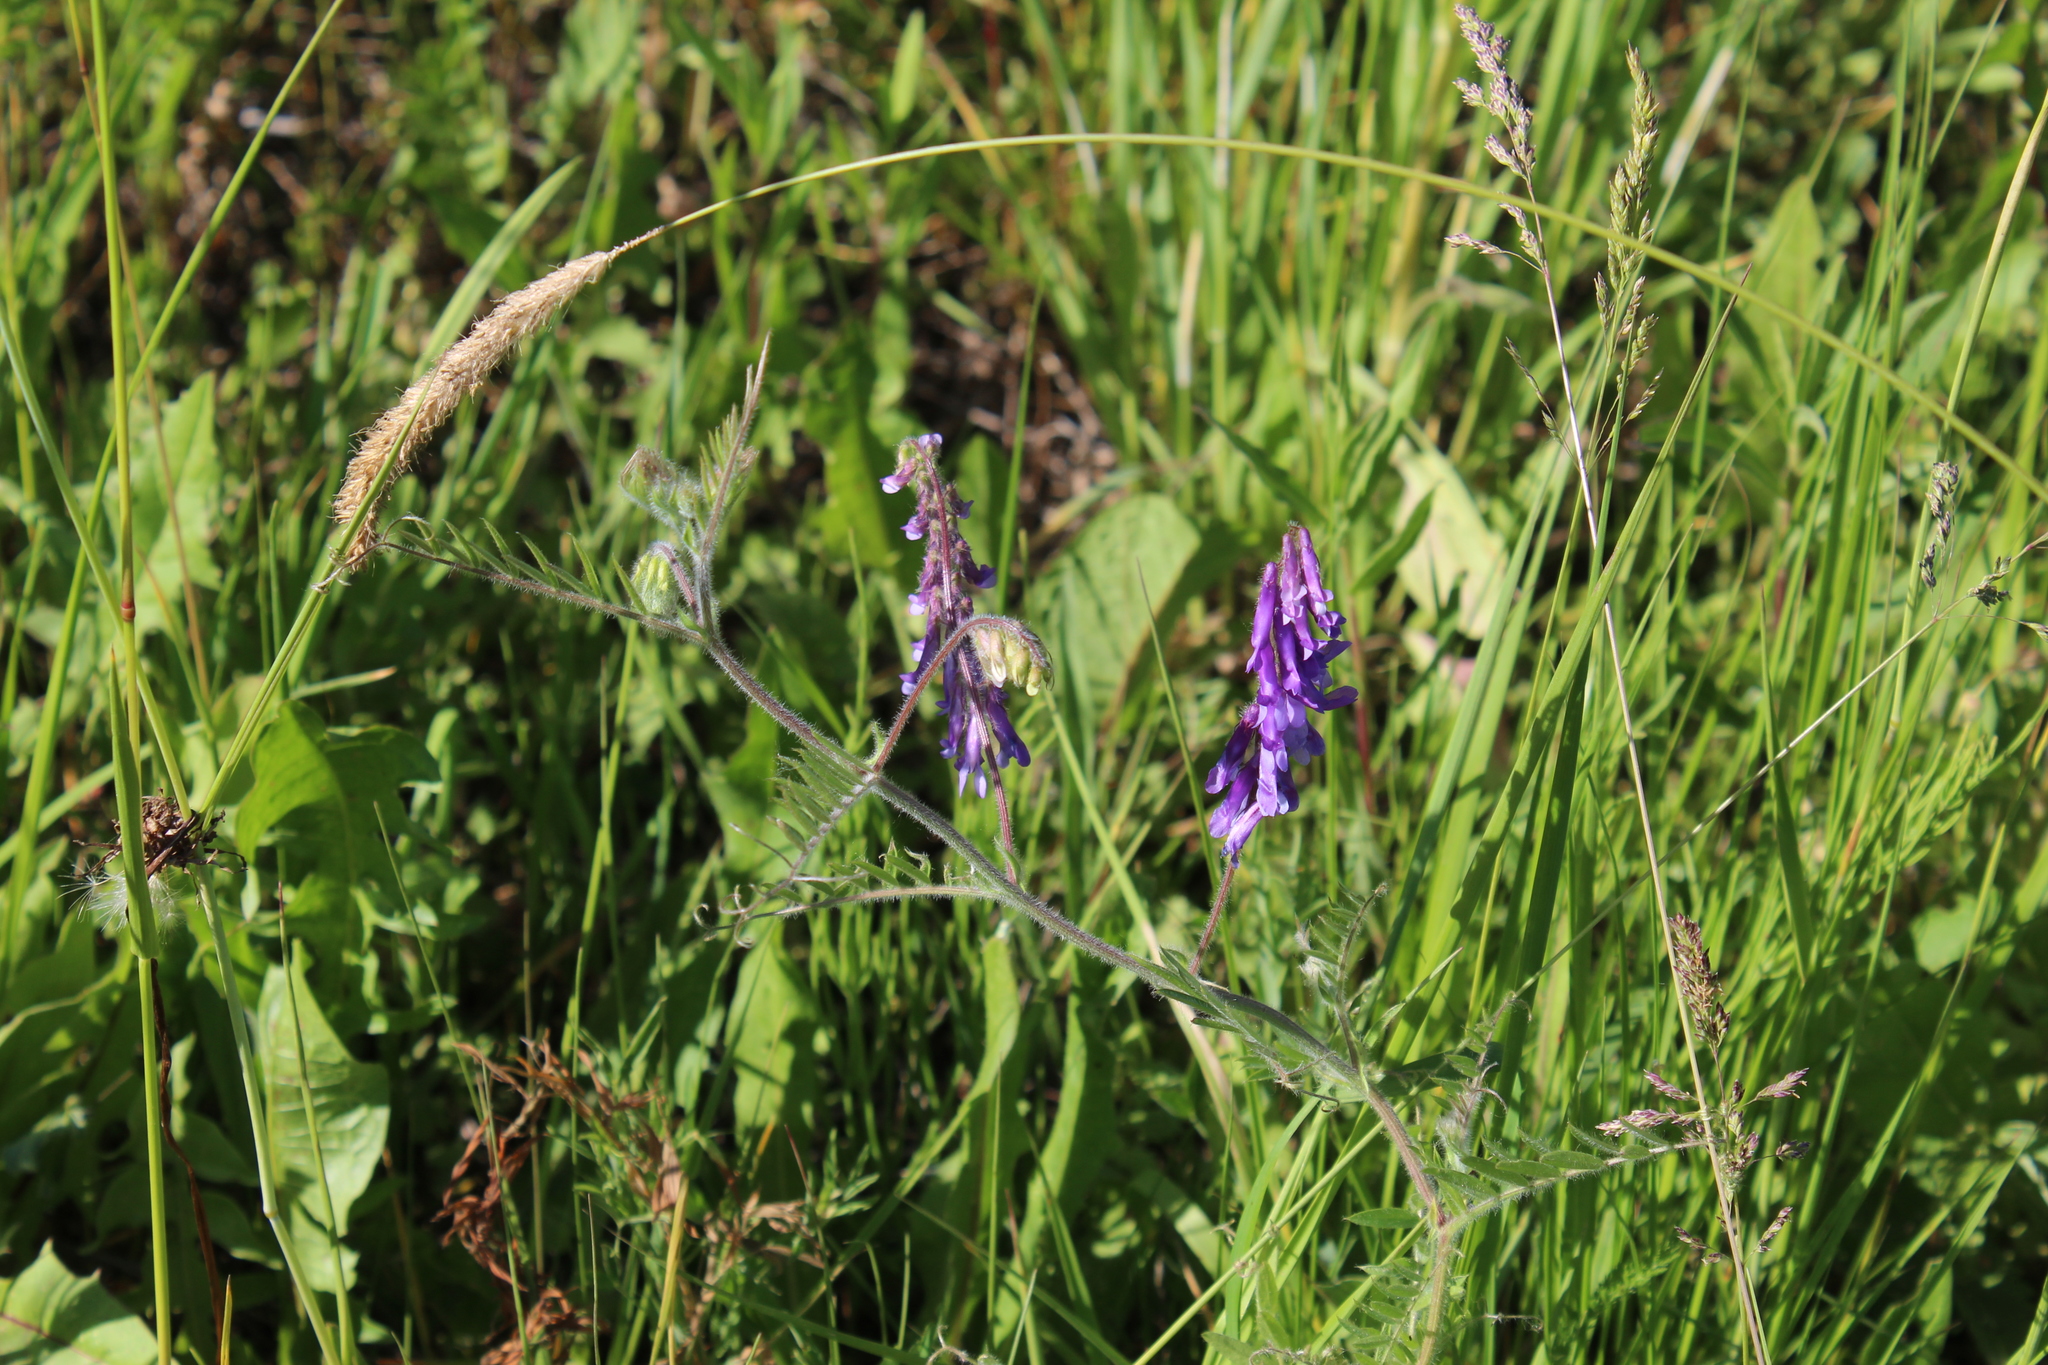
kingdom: Plantae
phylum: Tracheophyta
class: Magnoliopsida
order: Fabales
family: Fabaceae
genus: Vicia
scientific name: Vicia villosa
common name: Fodder vetch
